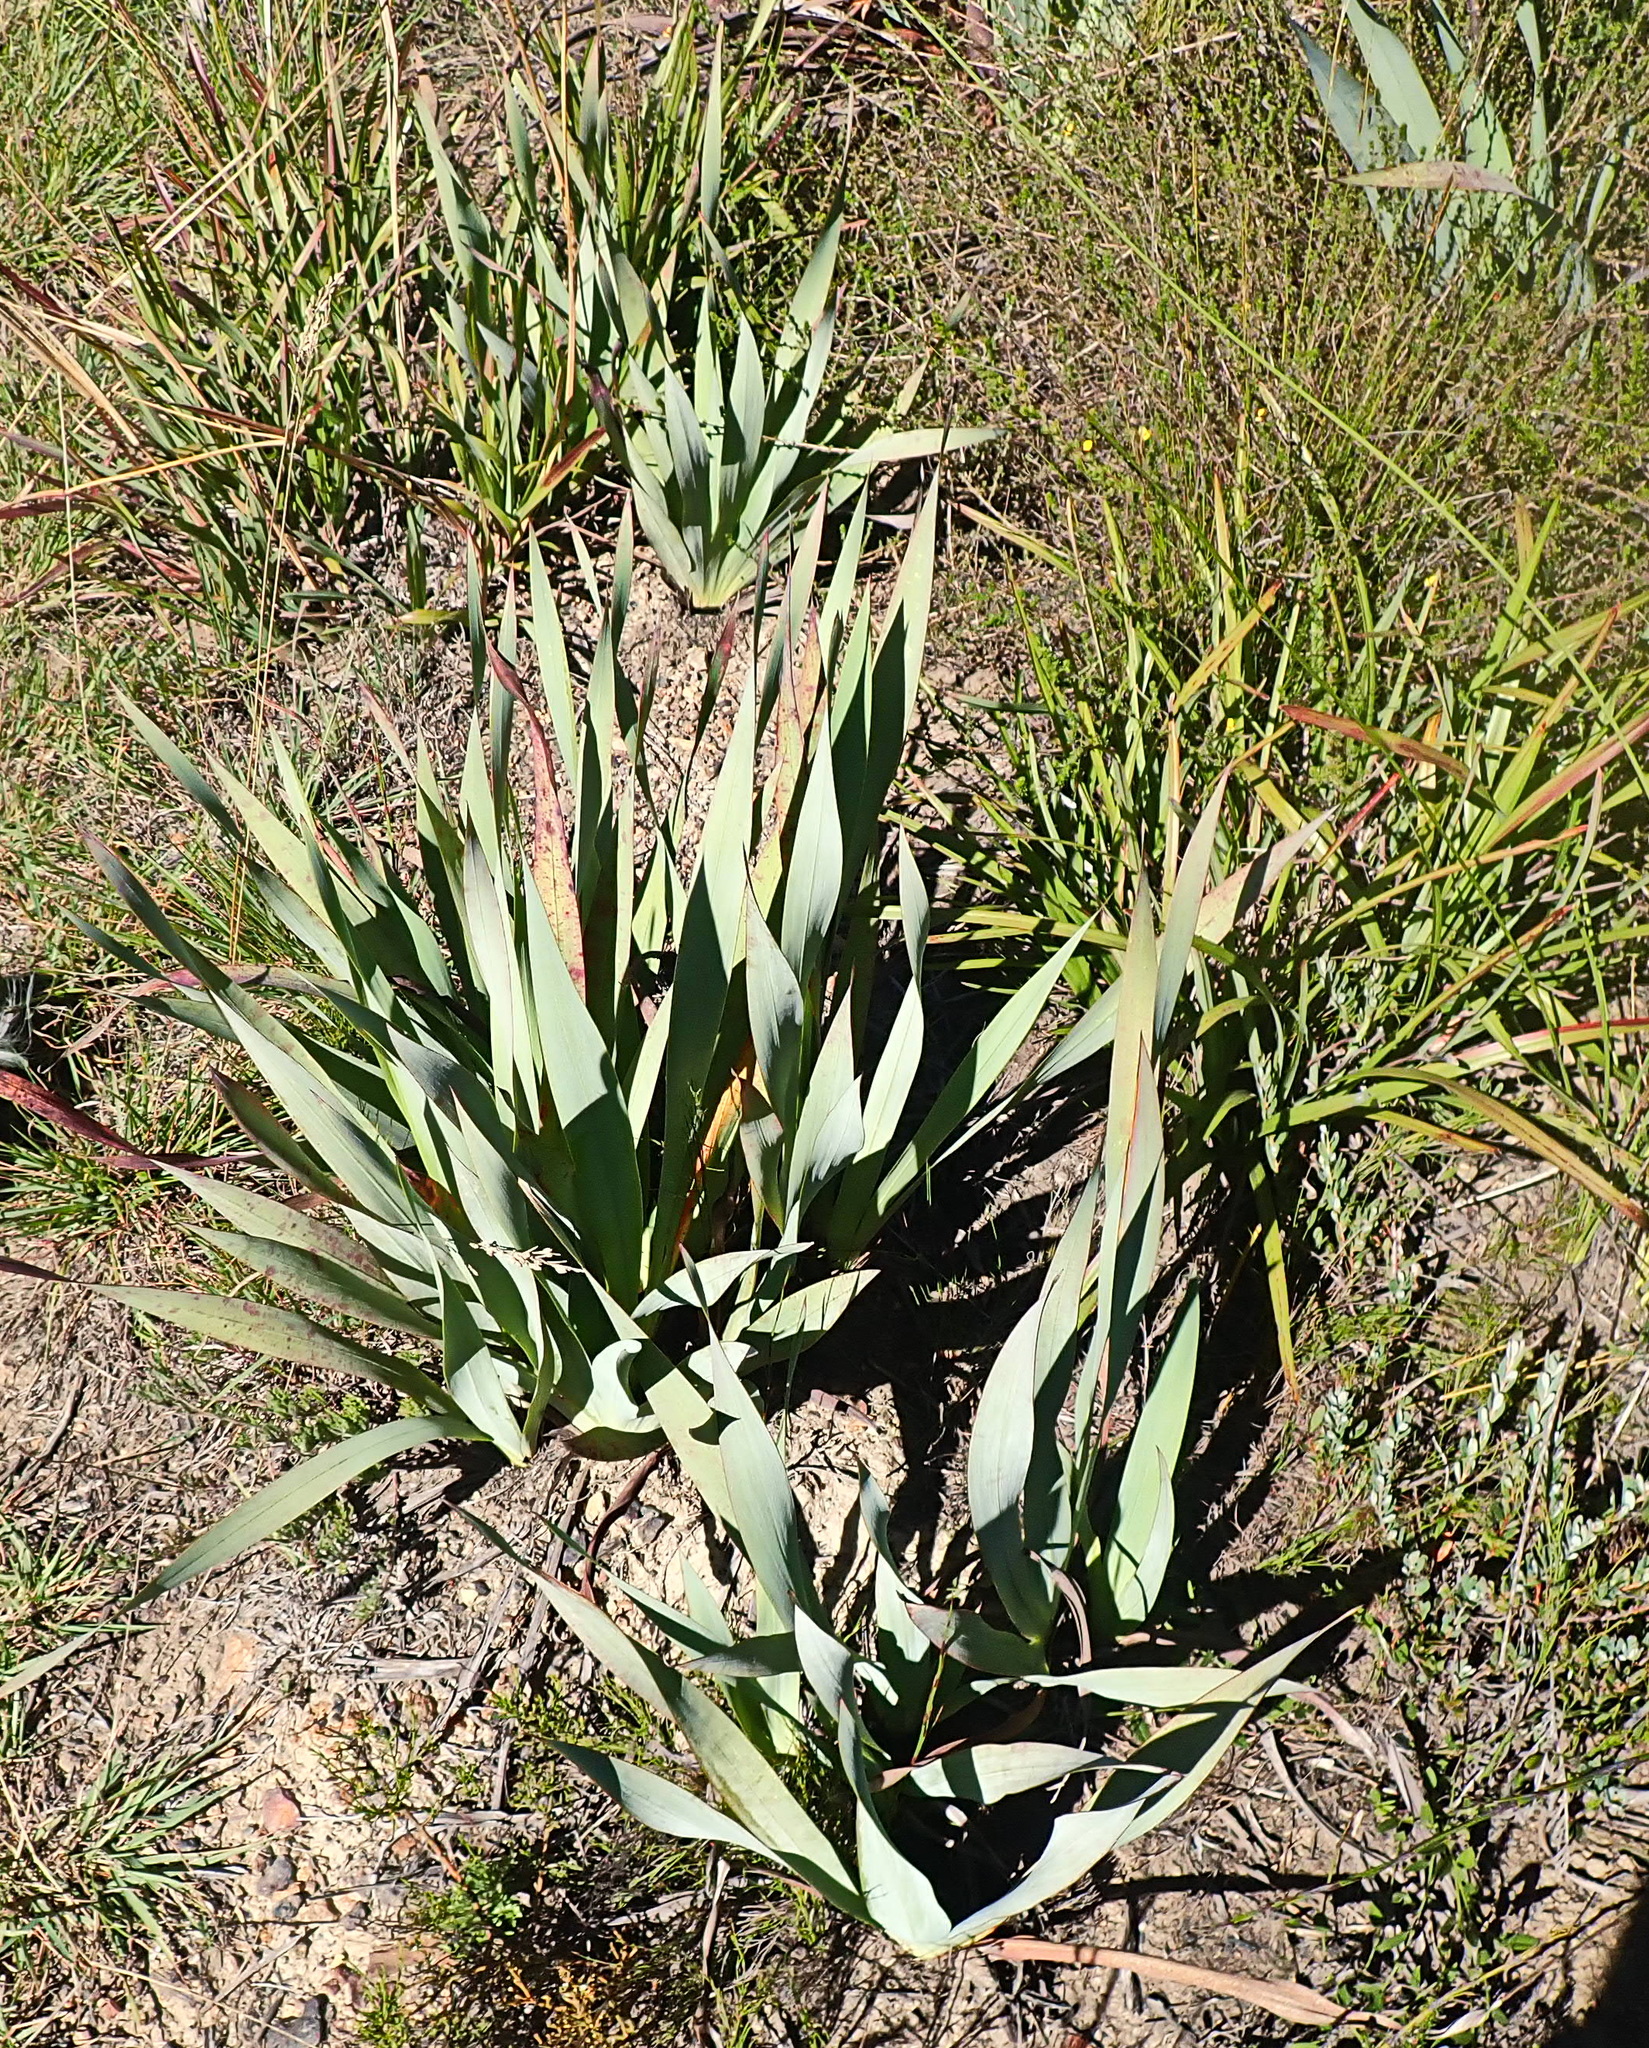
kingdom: Plantae
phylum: Tracheophyta
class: Liliopsida
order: Asparagales
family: Iridaceae
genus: Watsonia
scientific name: Watsonia fourcadei
